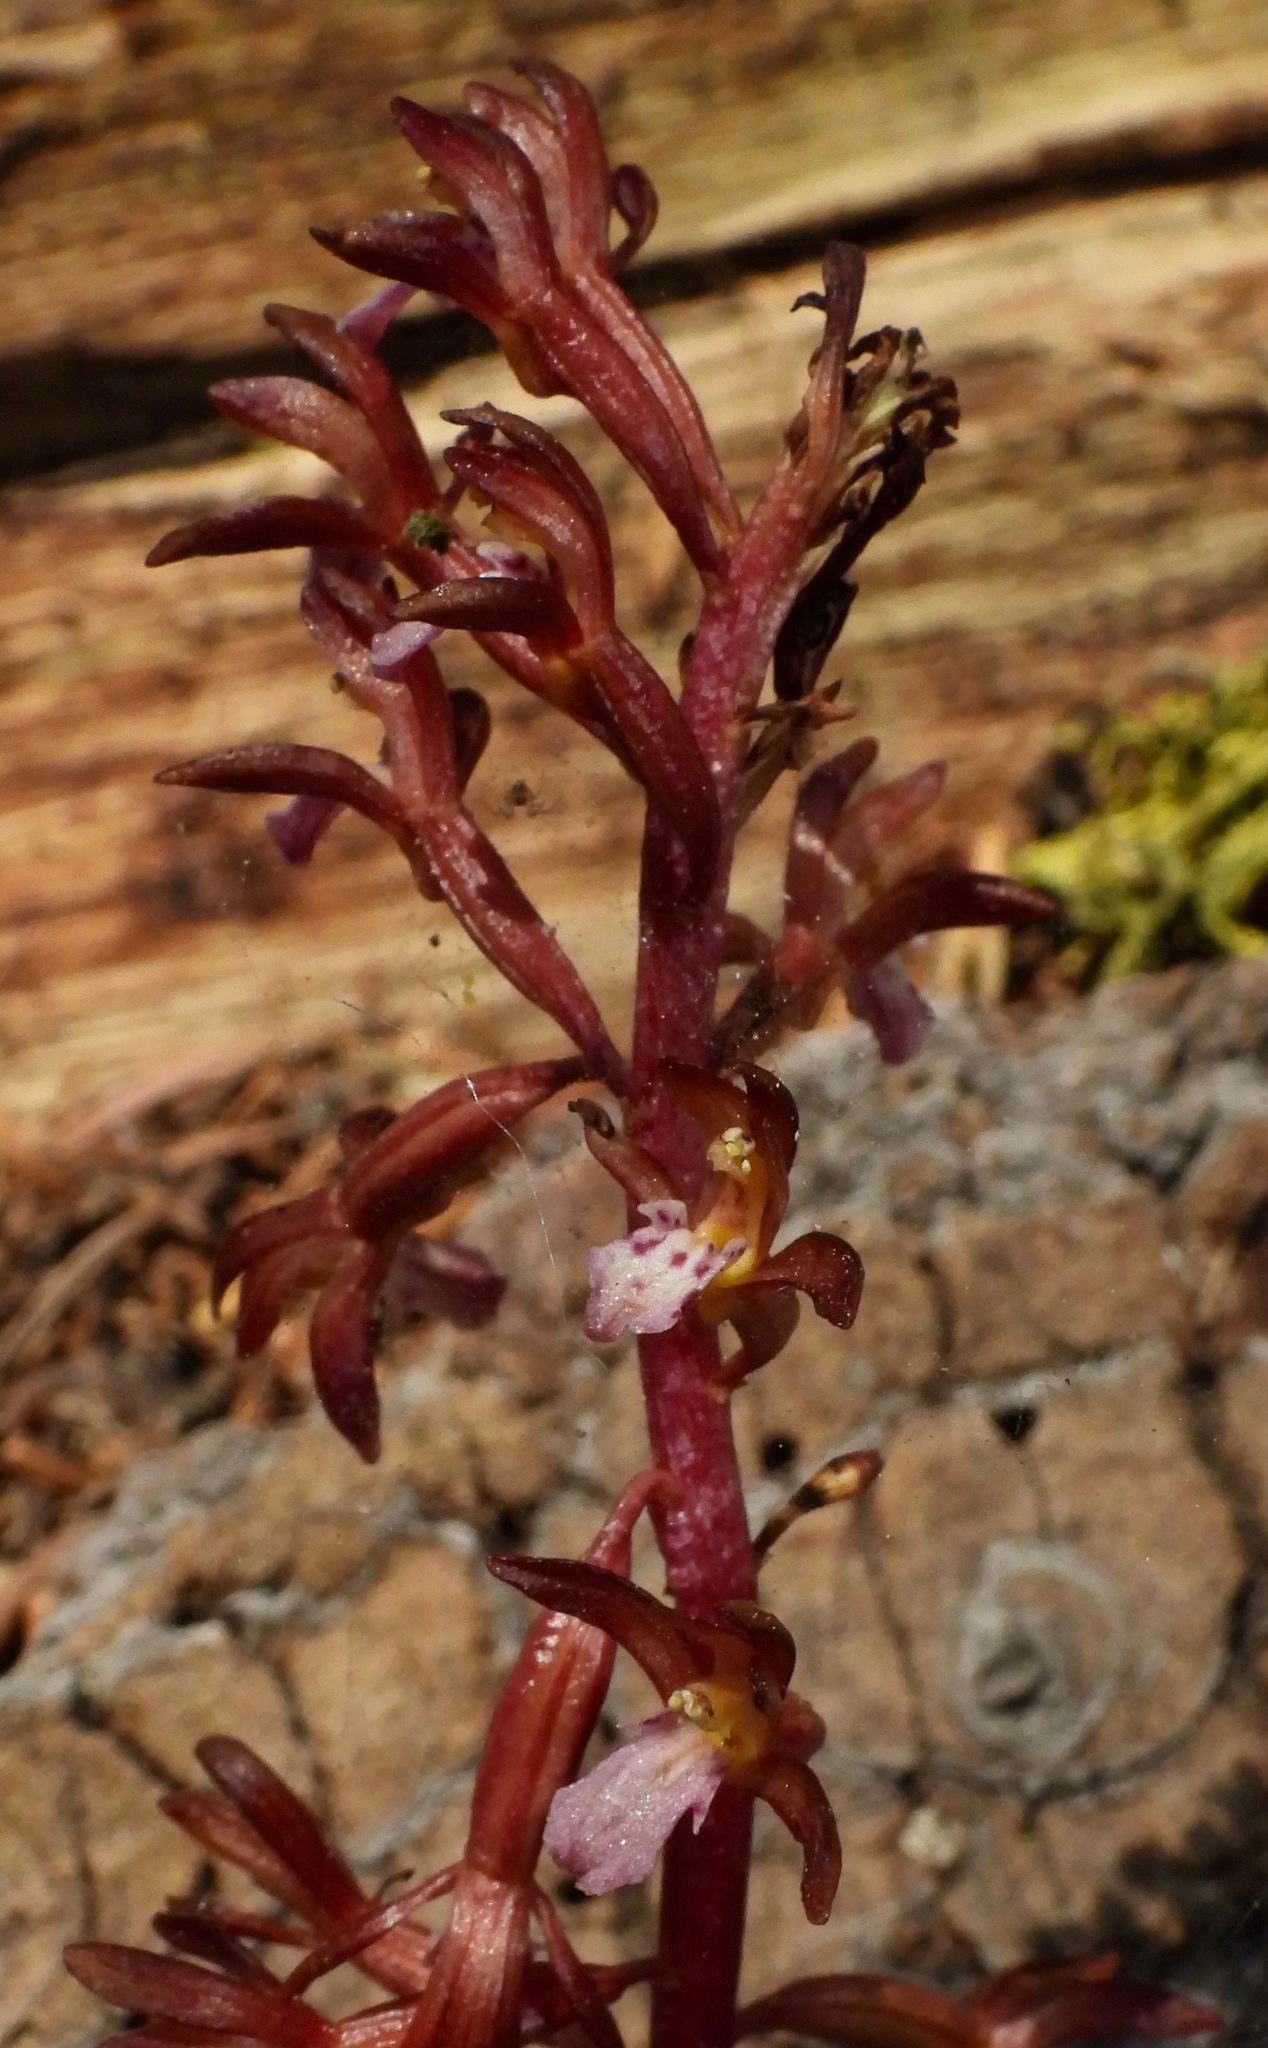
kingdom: Plantae
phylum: Tracheophyta
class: Liliopsida
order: Asparagales
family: Orchidaceae
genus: Corallorhiza
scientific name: Corallorhiza maculata
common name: Spotted coralroot
